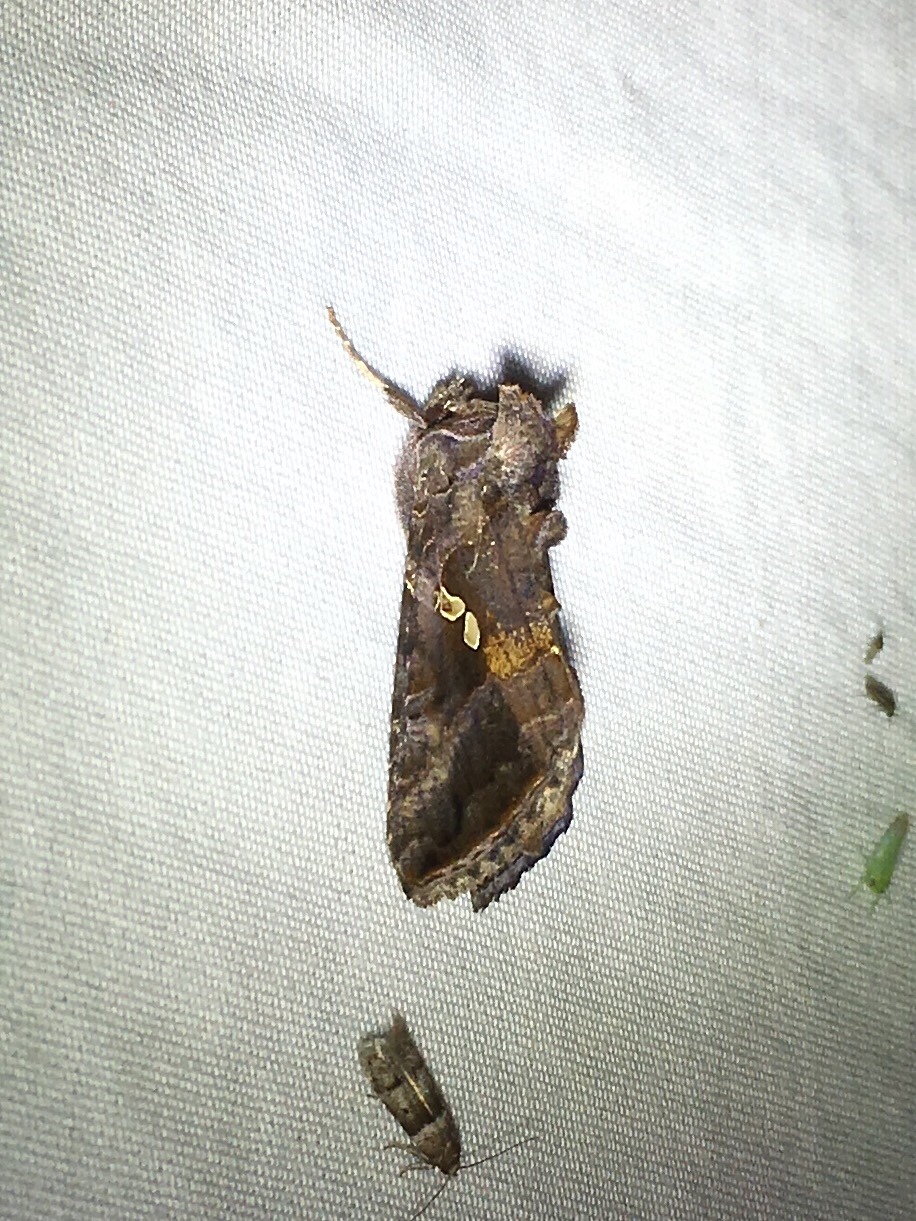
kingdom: Animalia
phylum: Arthropoda
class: Insecta
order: Lepidoptera
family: Noctuidae
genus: Autographa
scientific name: Autographa precationis
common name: Common looper moth
